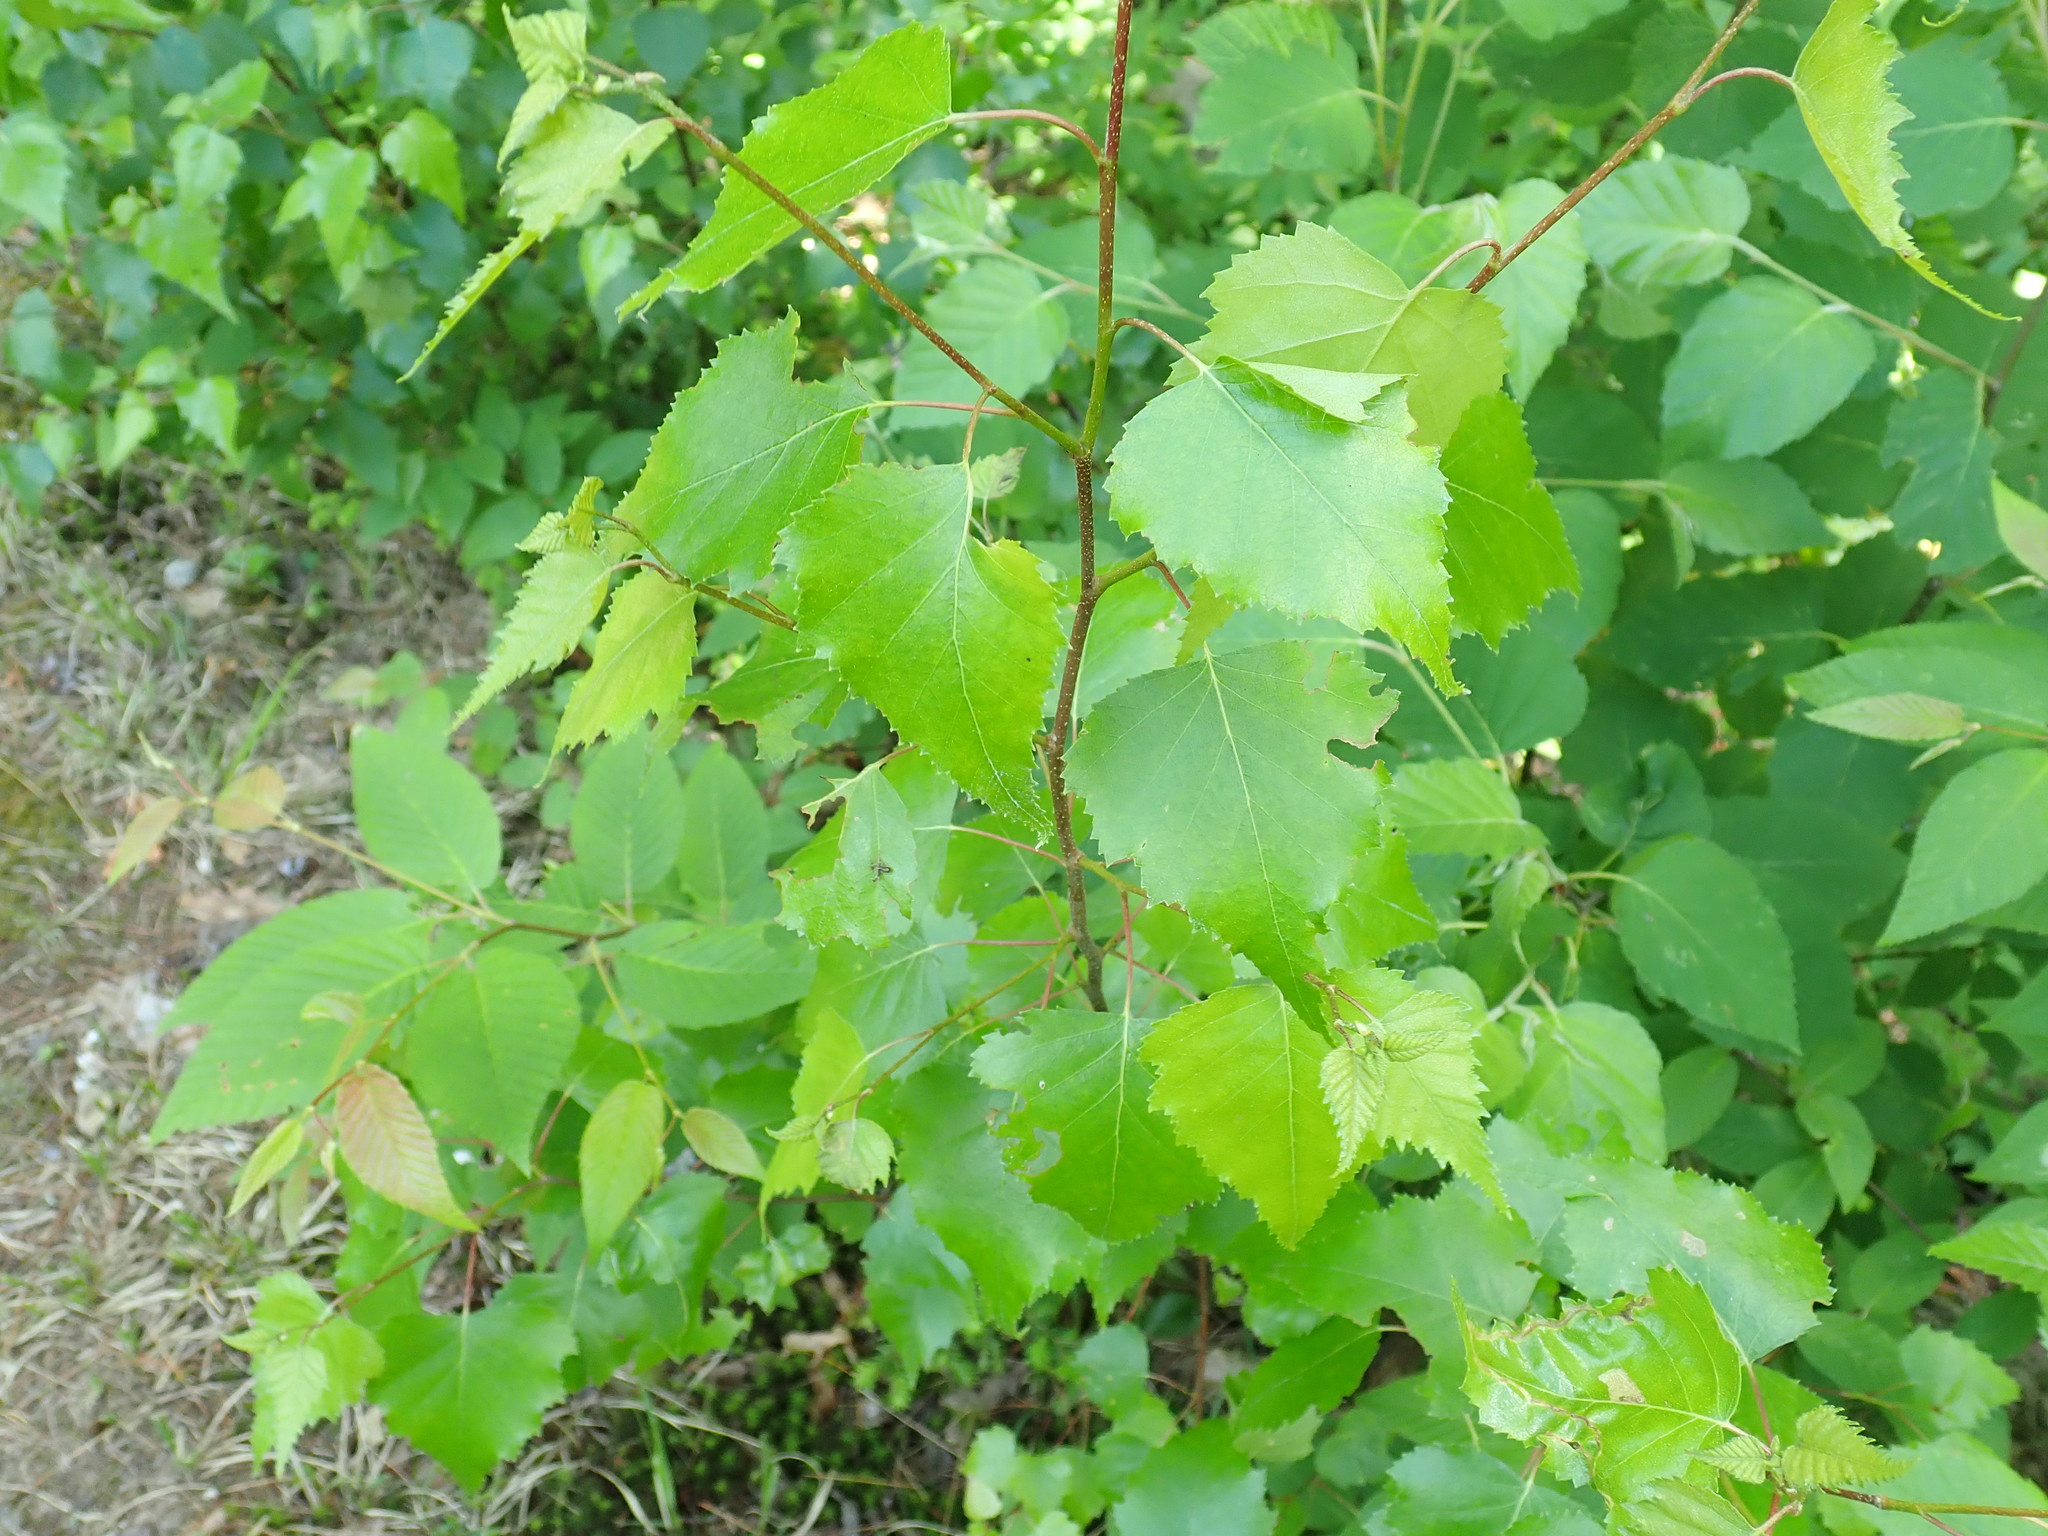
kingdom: Plantae
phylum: Tracheophyta
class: Magnoliopsida
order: Fagales
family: Betulaceae
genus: Betula
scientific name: Betula populifolia
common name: Fire birch
